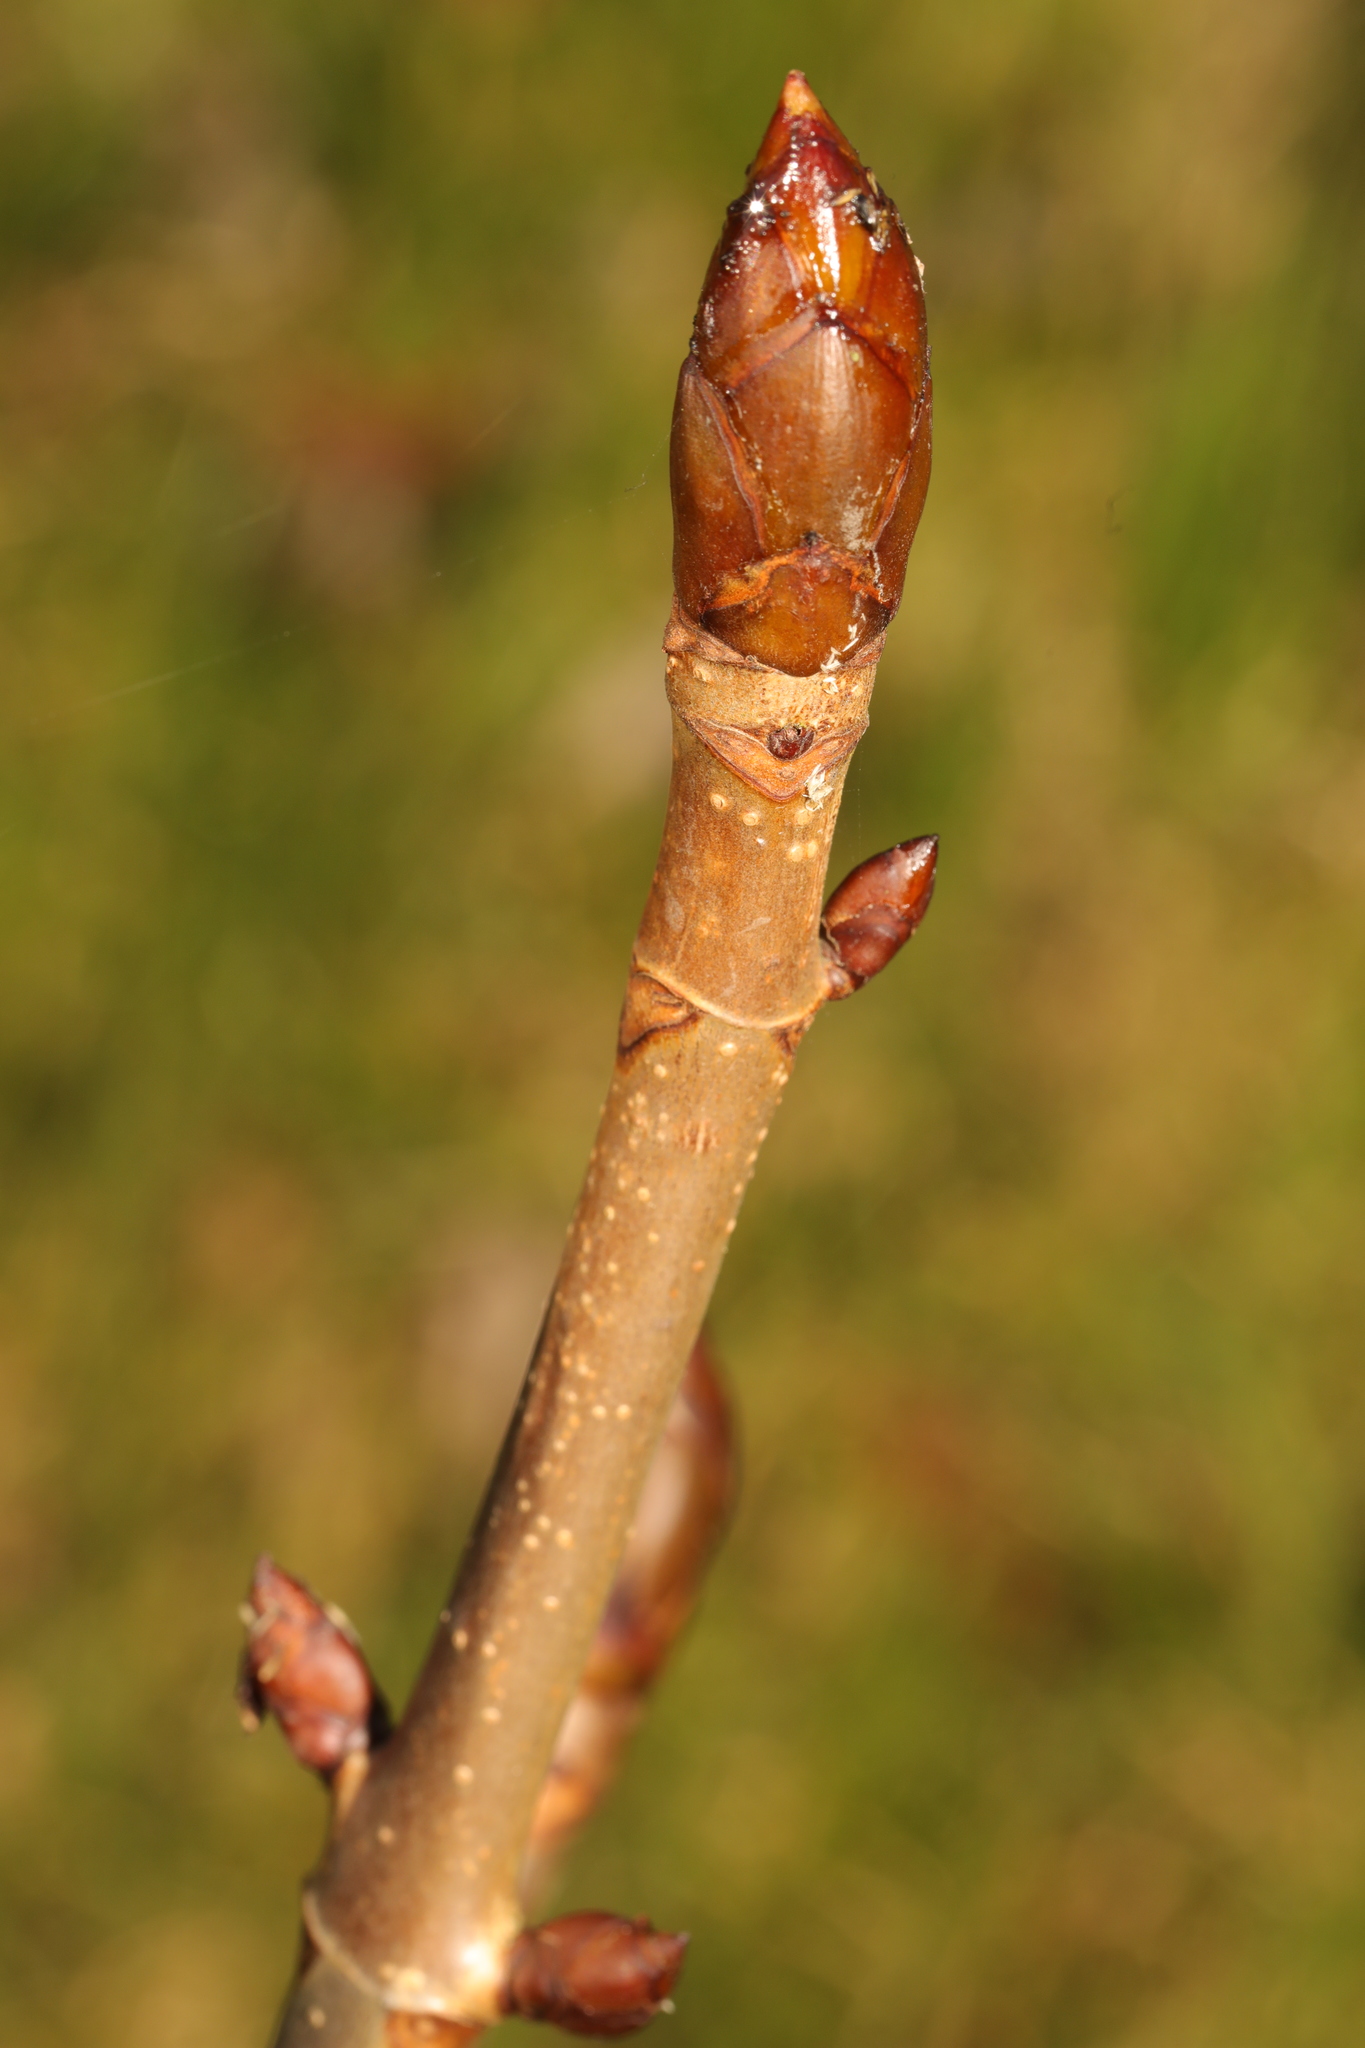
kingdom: Plantae
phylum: Tracheophyta
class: Magnoliopsida
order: Sapindales
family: Sapindaceae
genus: Aesculus
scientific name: Aesculus hippocastanum
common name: Horse-chestnut
